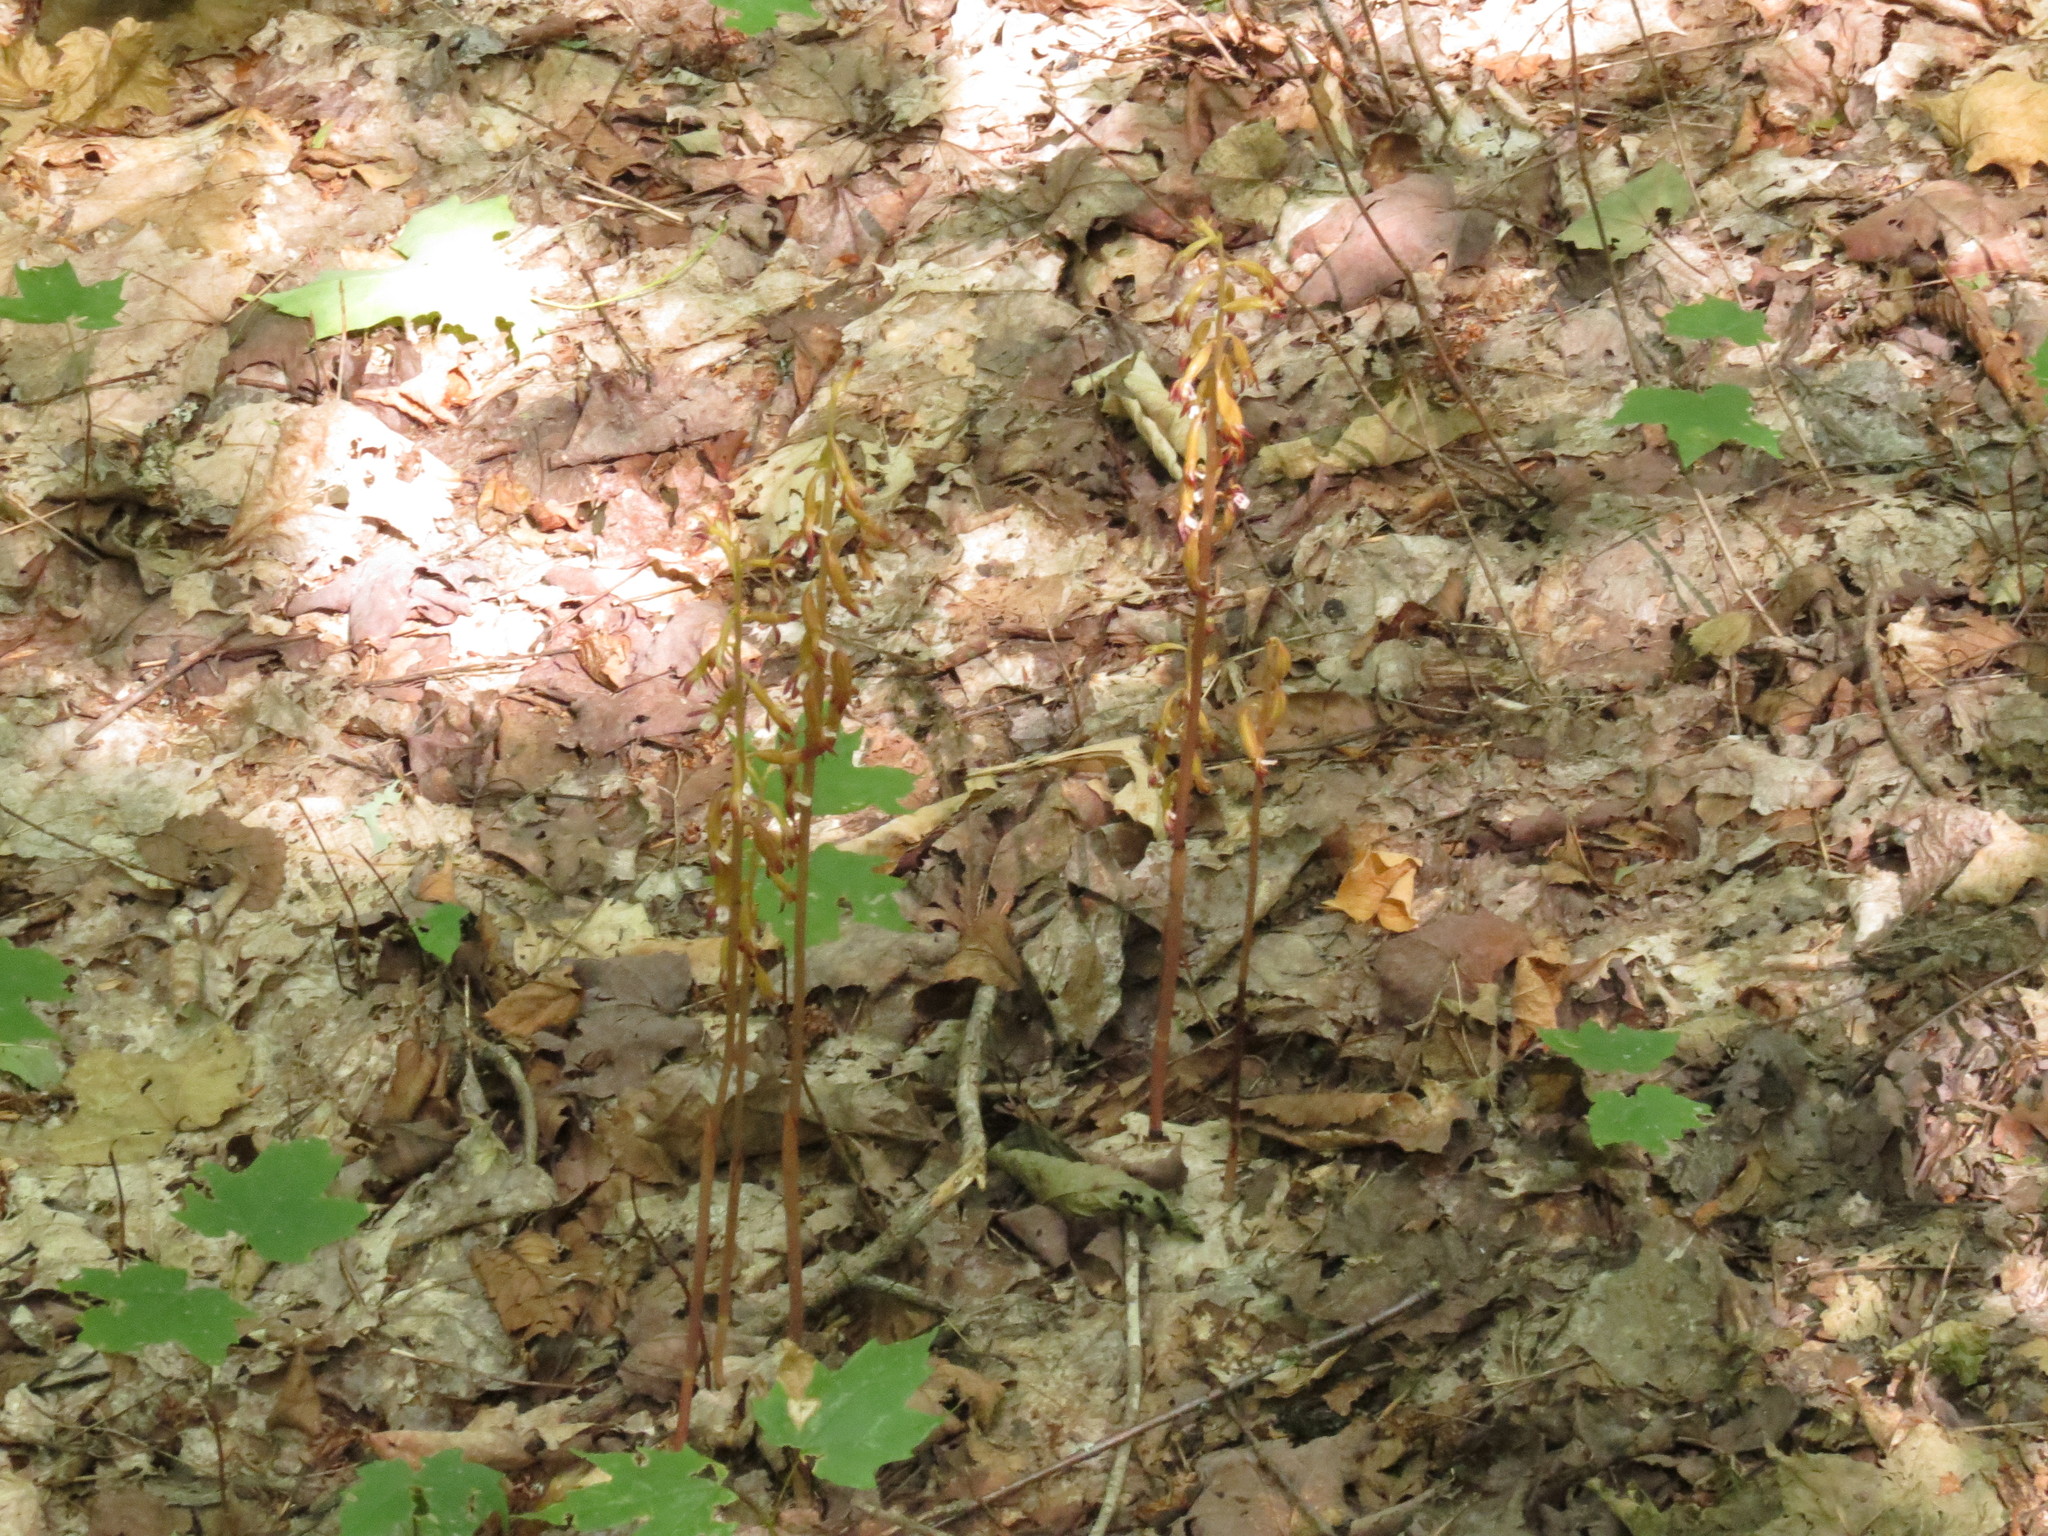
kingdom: Plantae
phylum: Tracheophyta
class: Liliopsida
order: Asparagales
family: Orchidaceae
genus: Corallorhiza
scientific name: Corallorhiza maculata
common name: Spotted coralroot
